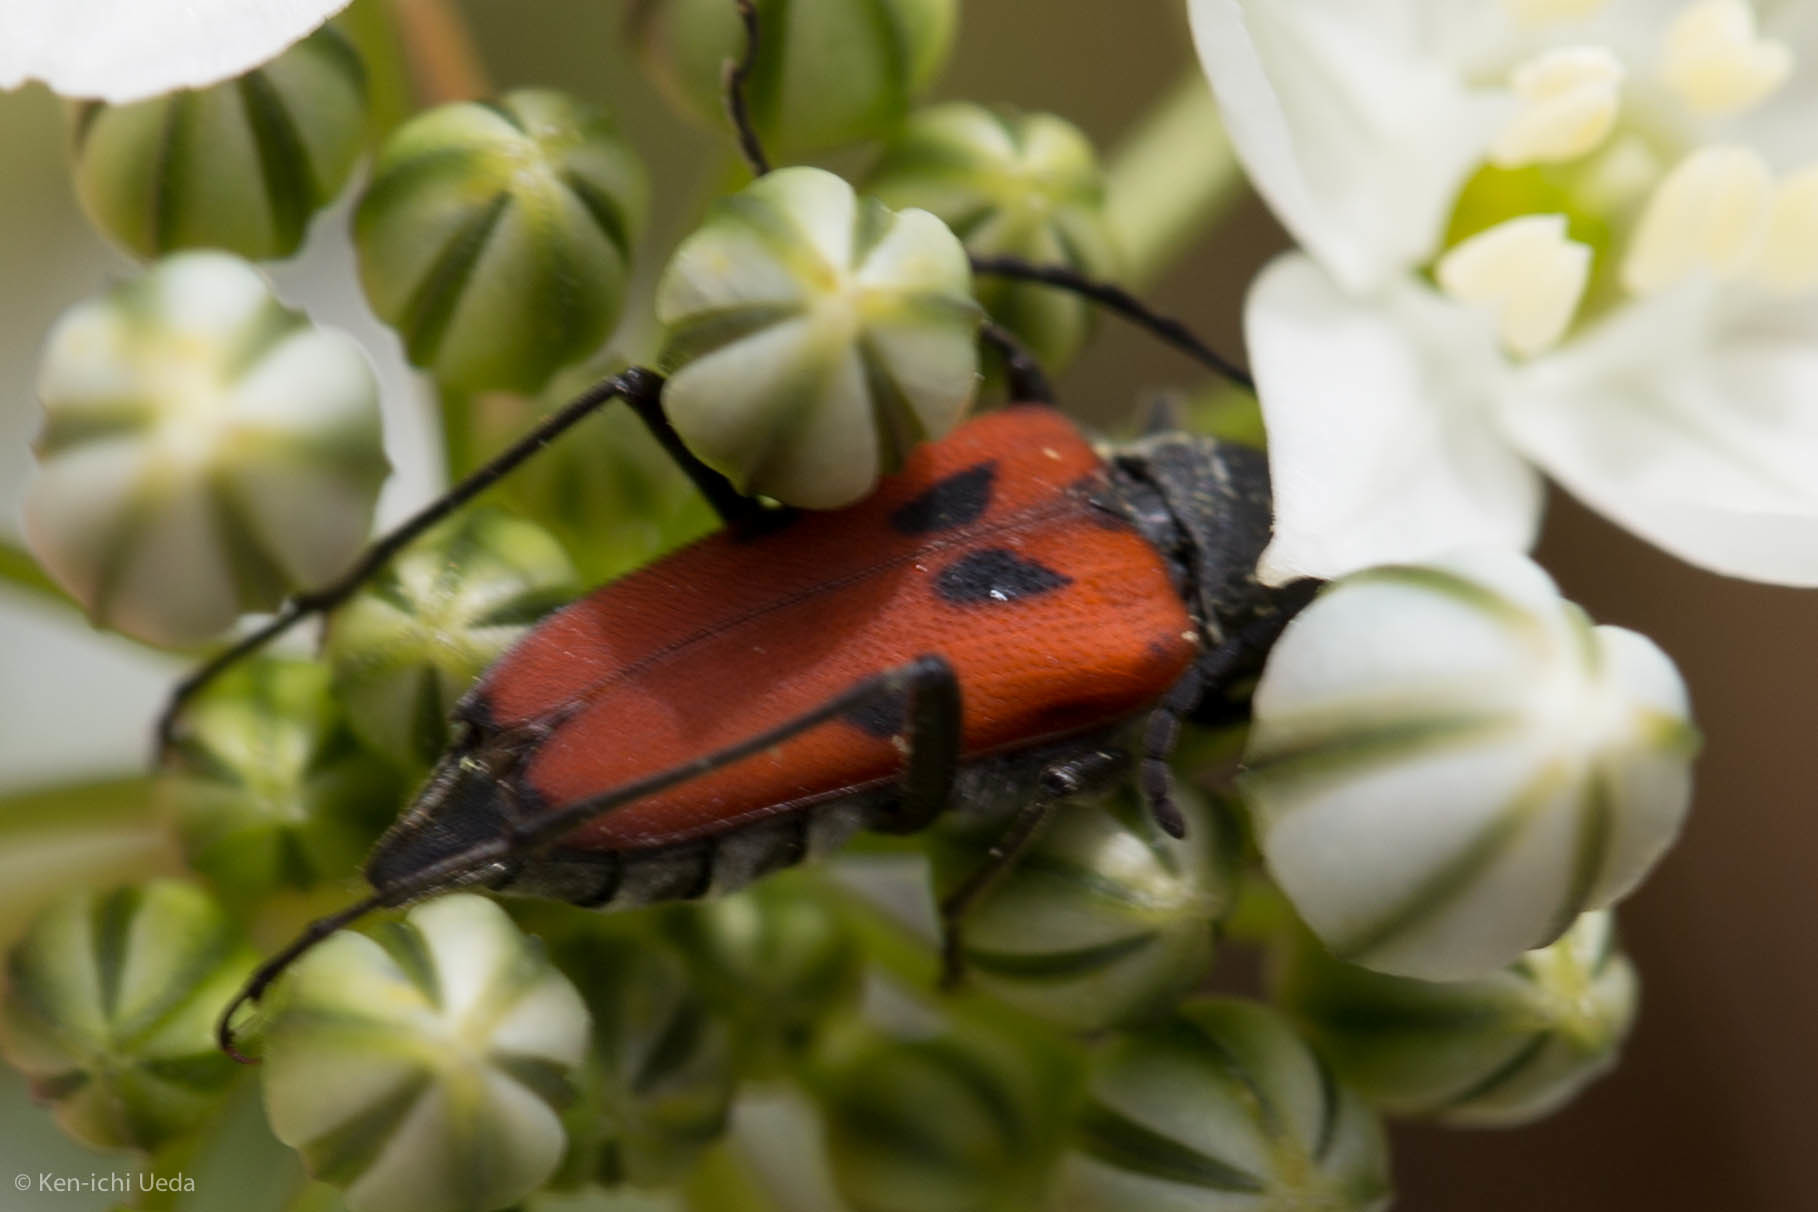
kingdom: Animalia
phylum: Arthropoda
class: Insecta
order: Coleoptera
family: Cerambycidae
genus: Anastrangalia
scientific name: Anastrangalia laetifica
